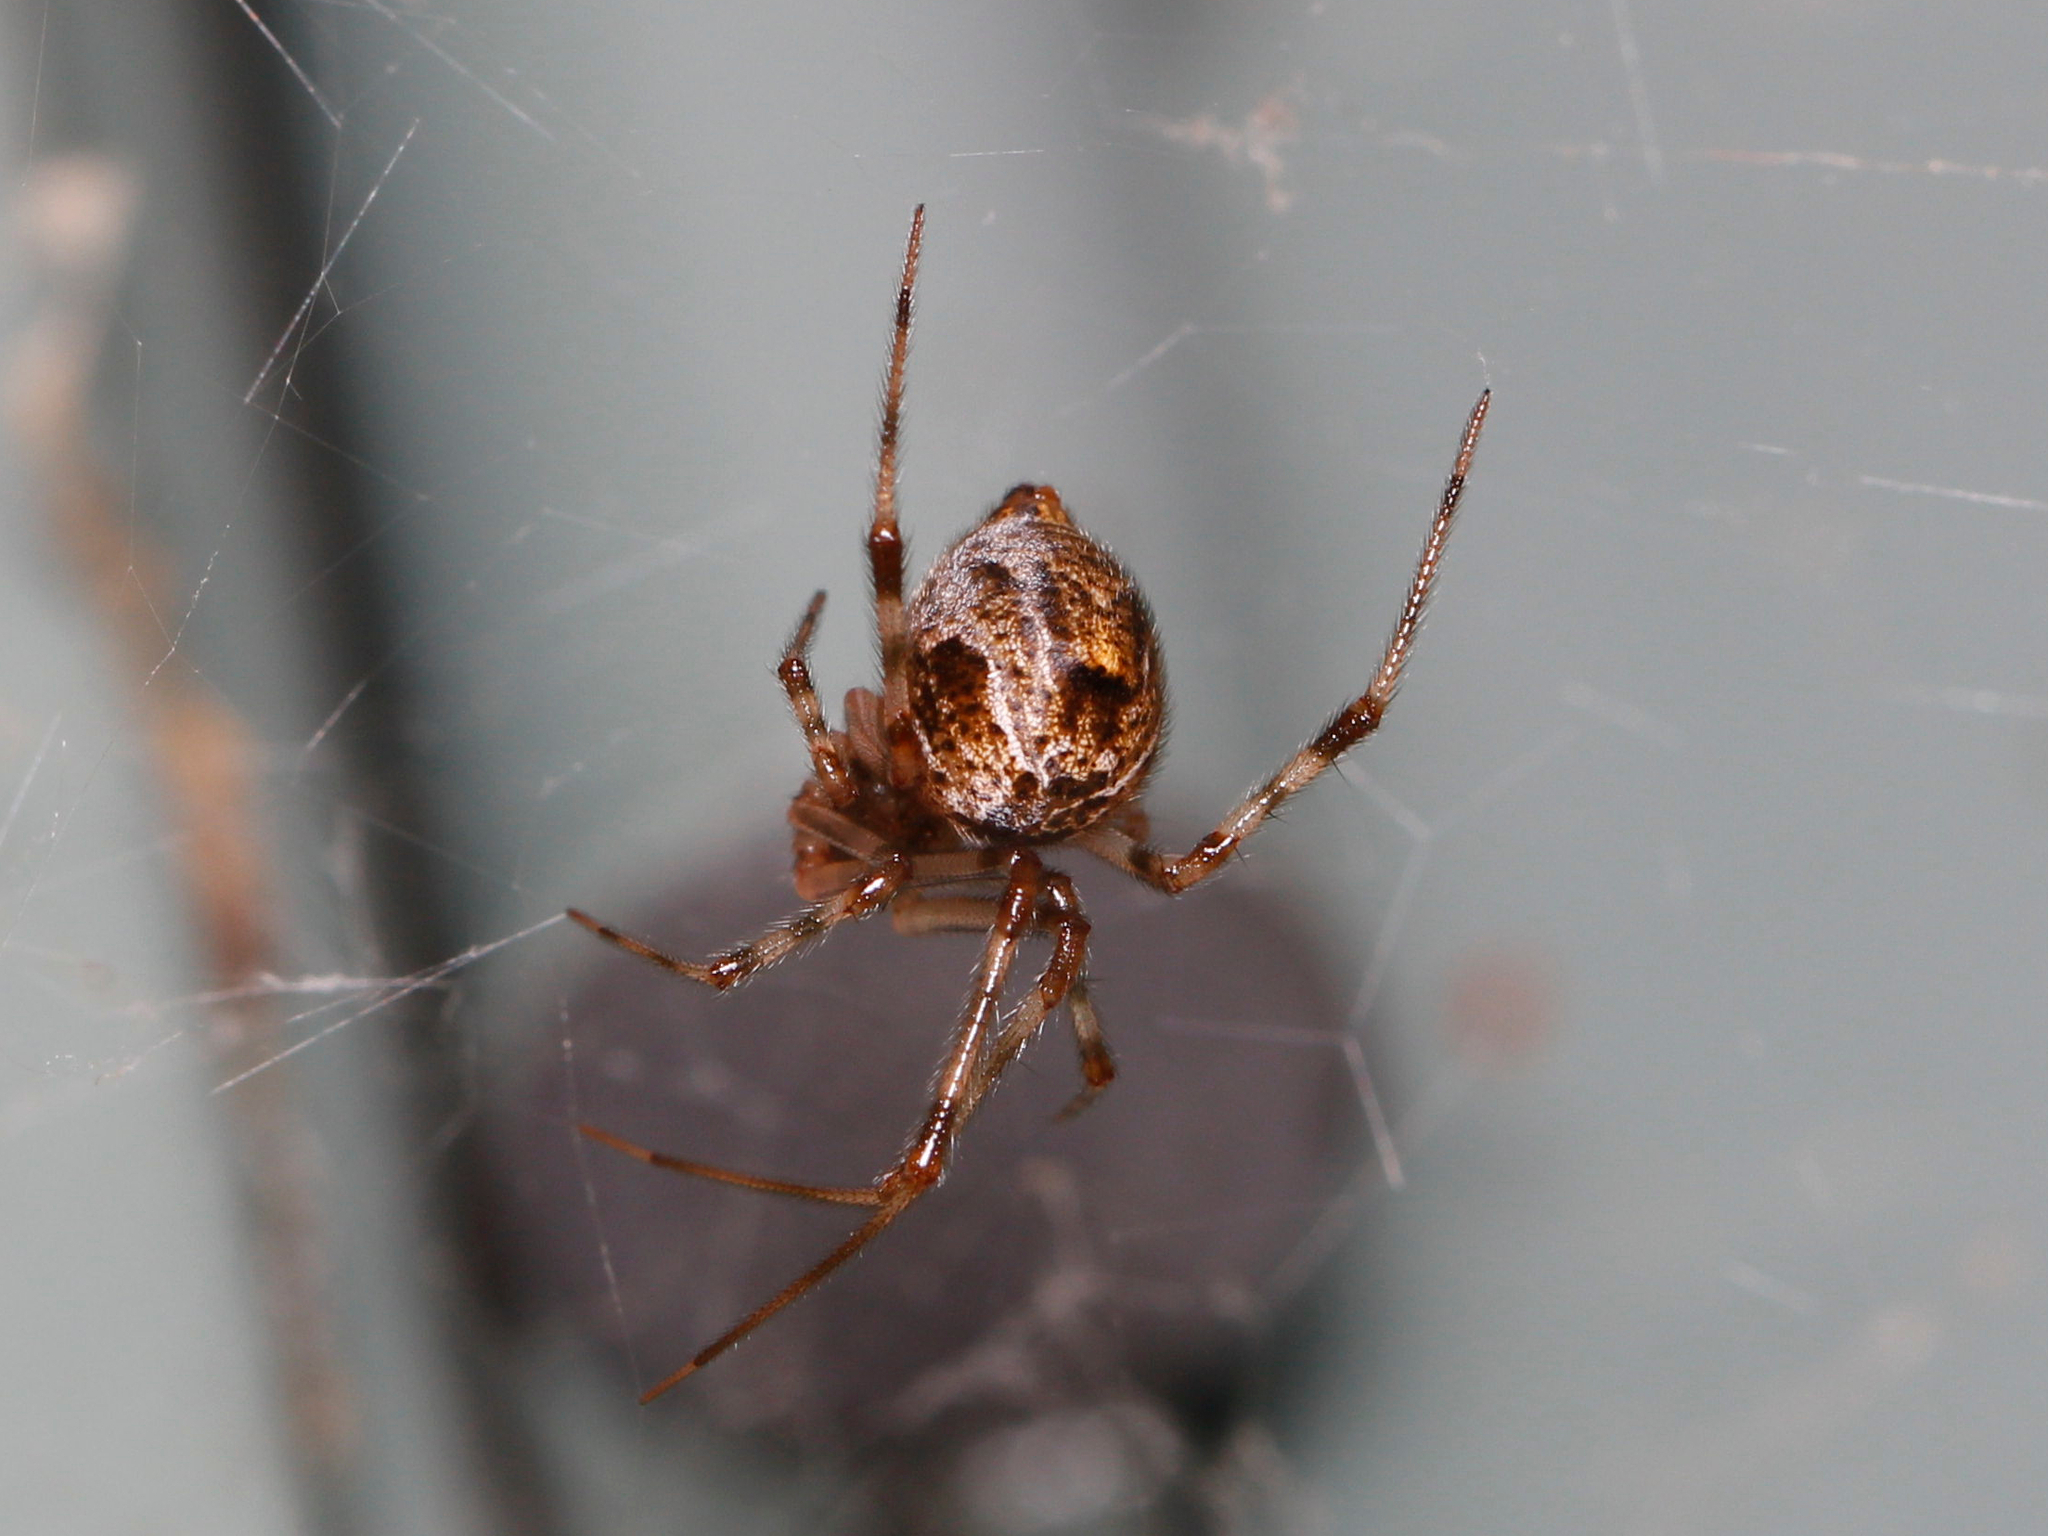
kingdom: Animalia
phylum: Arthropoda
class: Arachnida
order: Araneae
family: Theridiidae
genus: Parasteatoda
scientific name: Parasteatoda tepidariorum
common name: Common house spider
